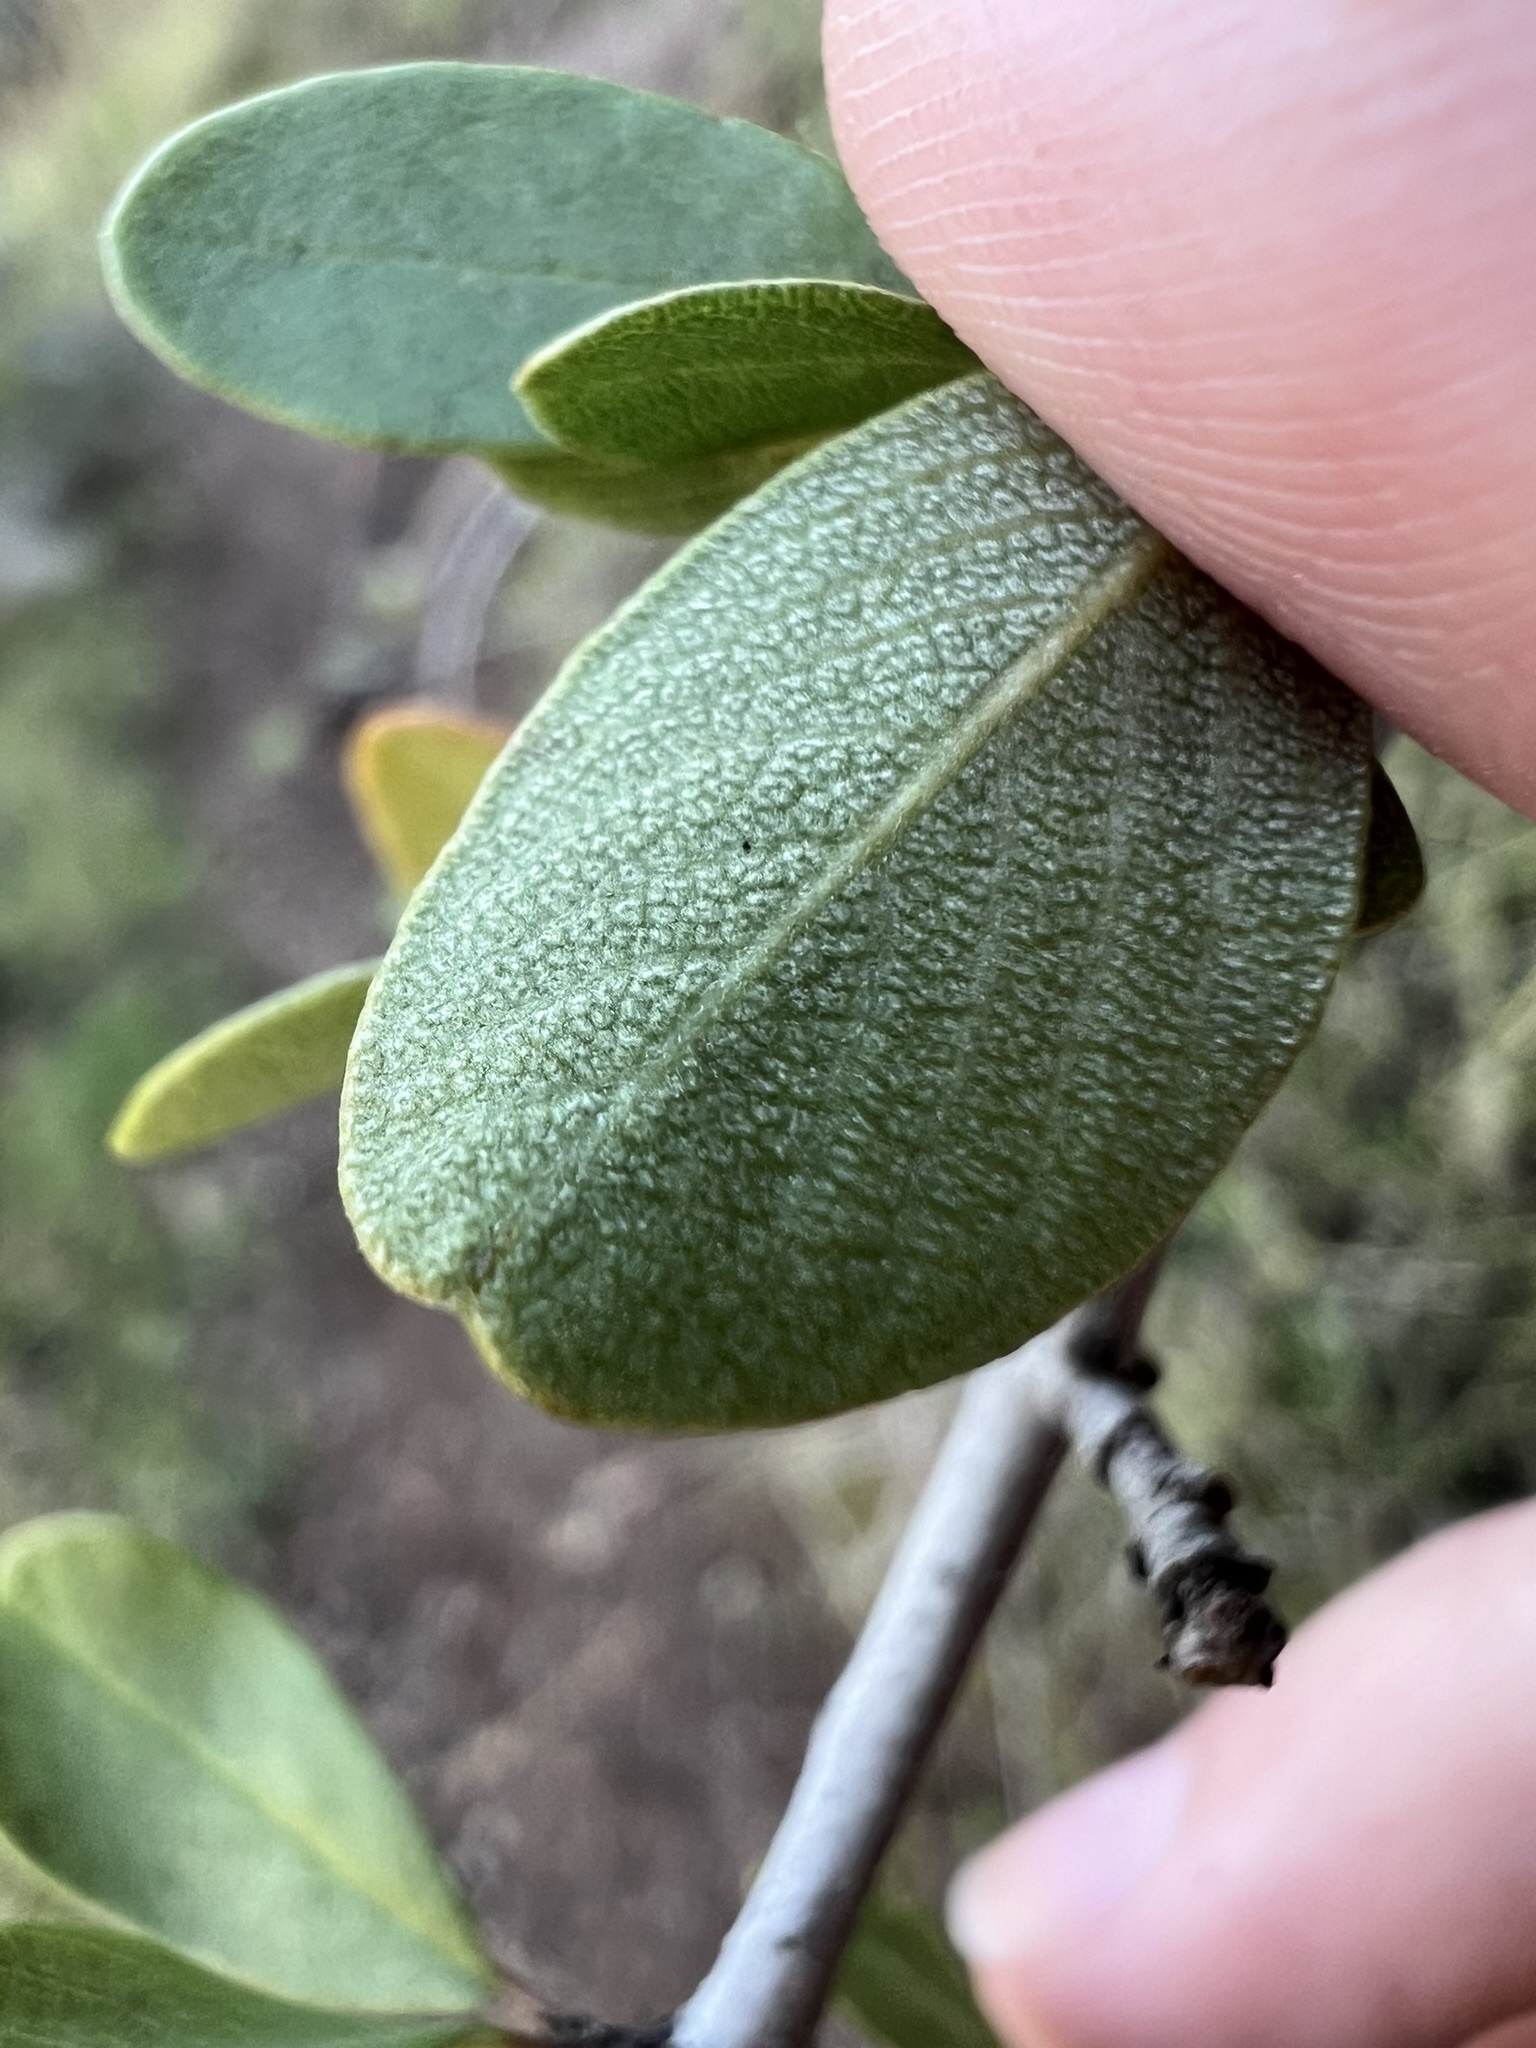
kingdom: Plantae
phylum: Tracheophyta
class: Magnoliopsida
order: Rosales
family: Rhamnaceae
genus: Ceanothus
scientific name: Ceanothus cuneatus
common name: Cuneate ceanothus
